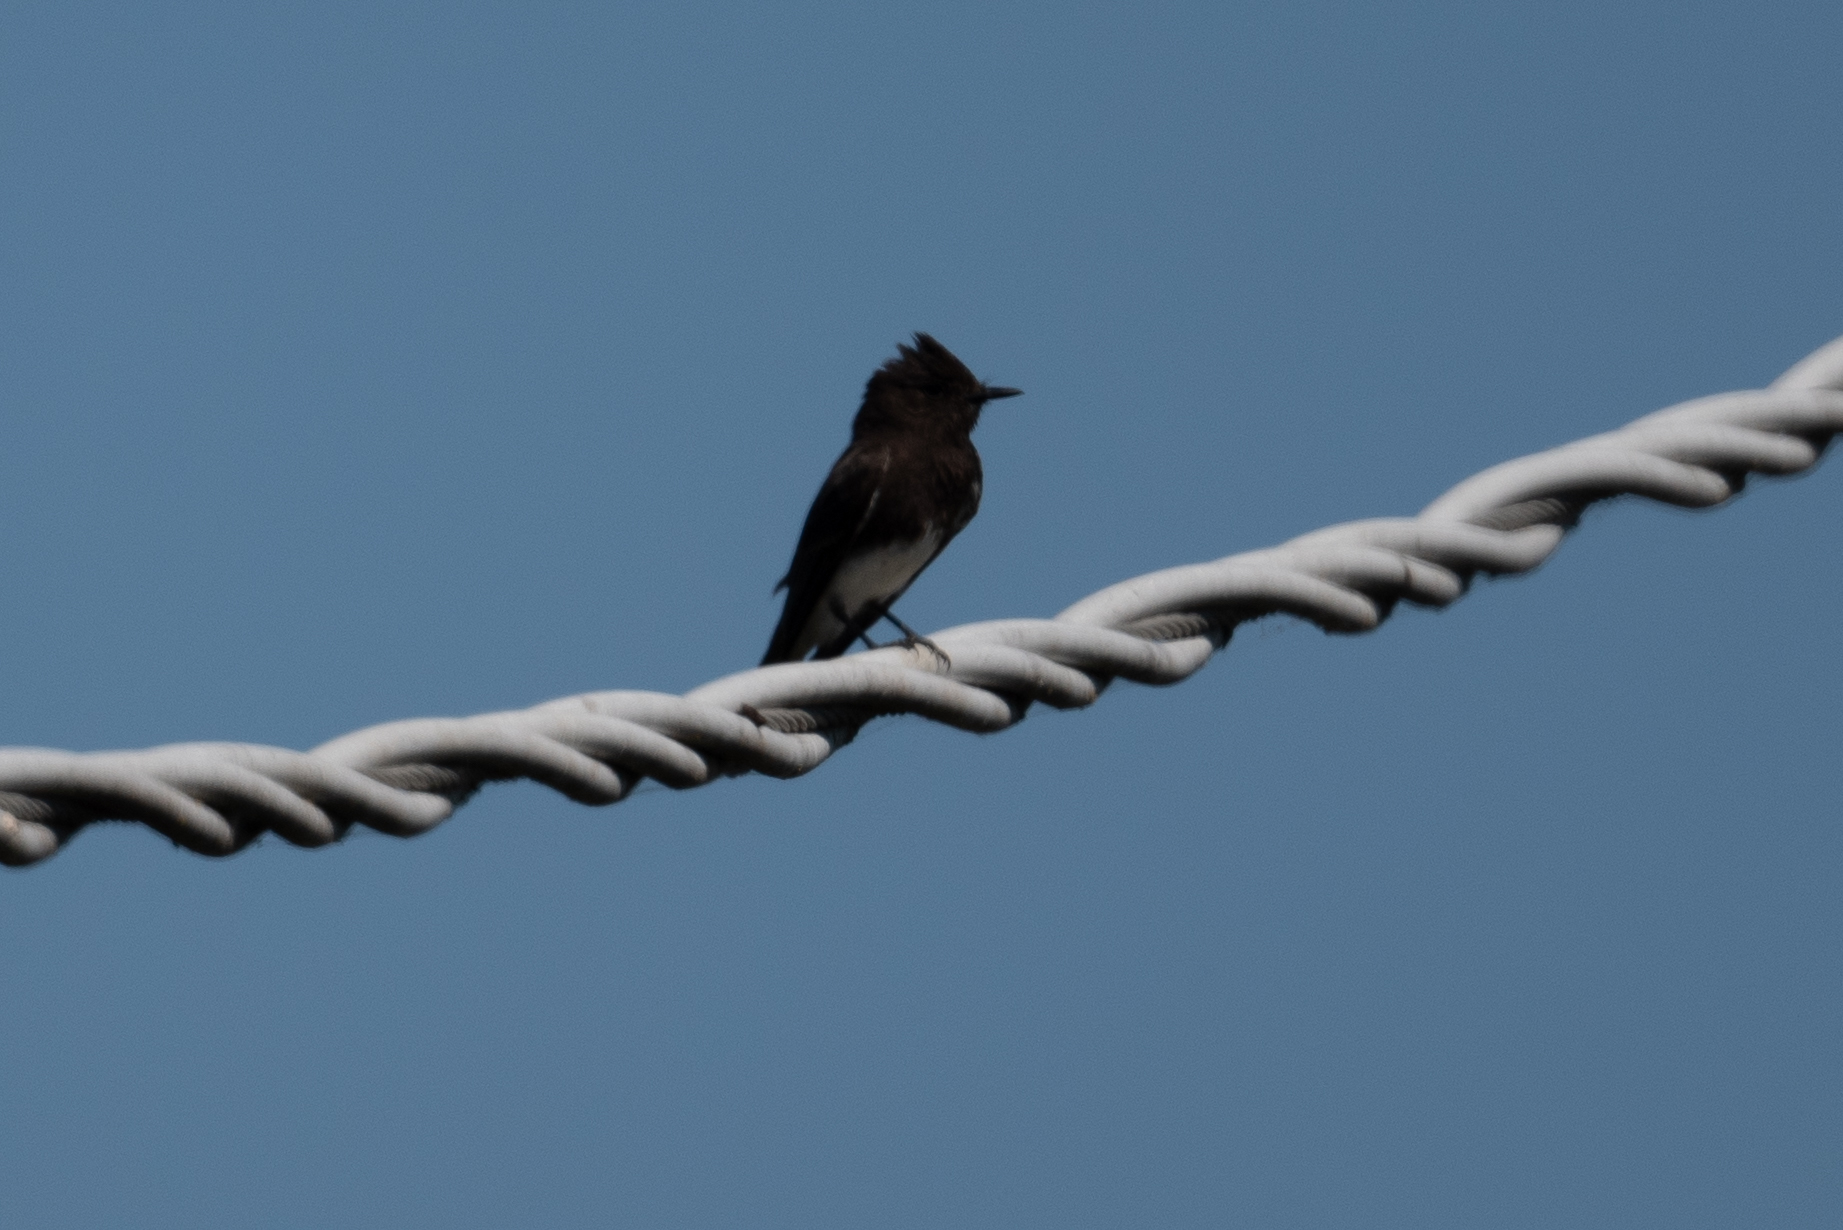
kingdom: Animalia
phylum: Chordata
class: Aves
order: Passeriformes
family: Tyrannidae
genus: Sayornis
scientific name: Sayornis nigricans
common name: Black phoebe
